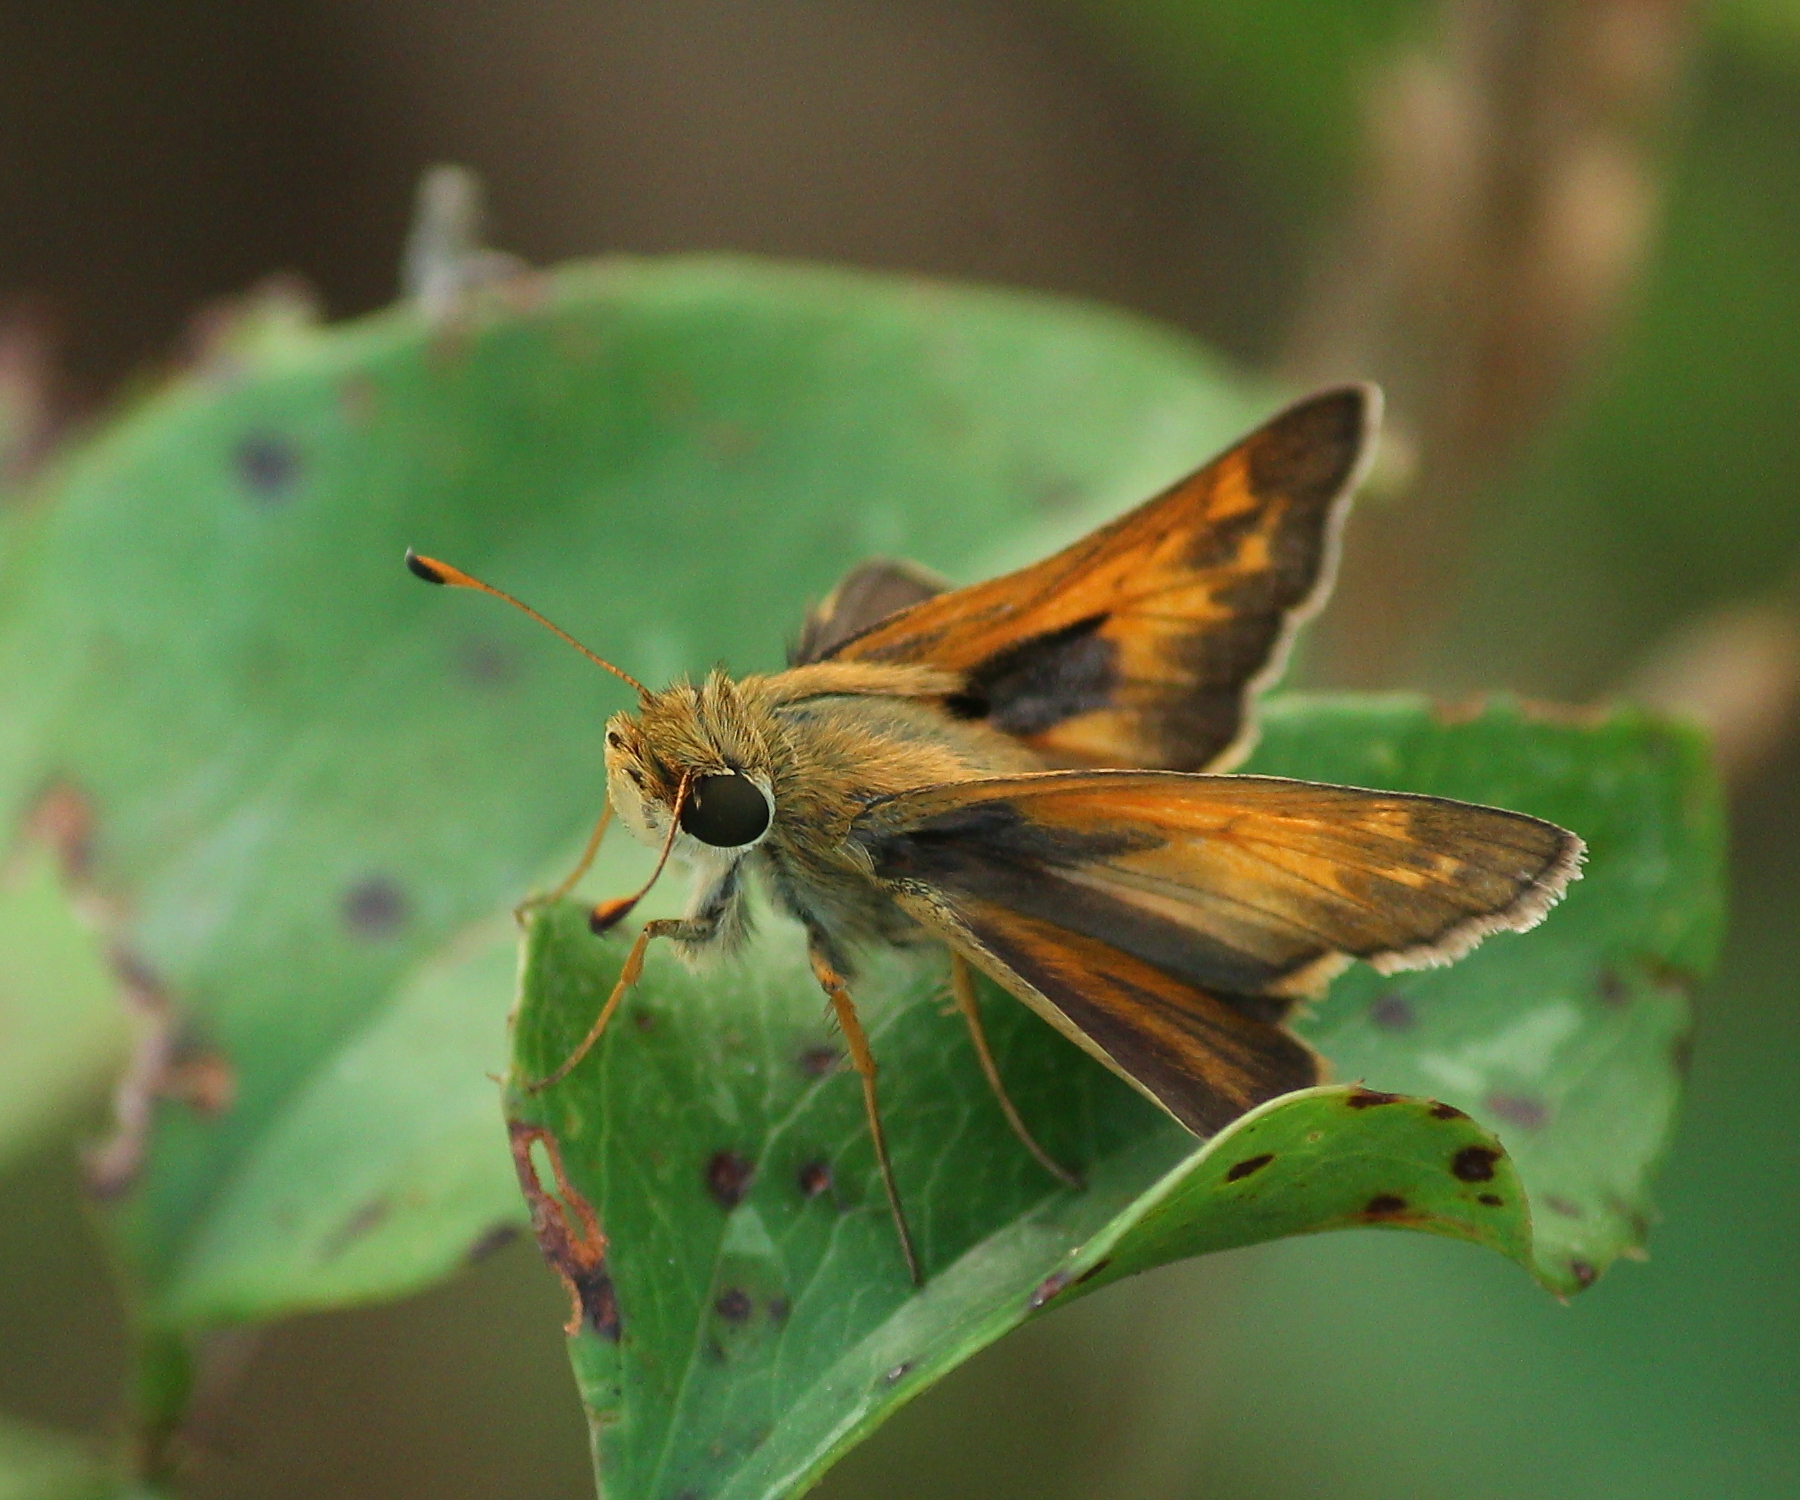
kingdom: Animalia
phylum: Arthropoda
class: Insecta
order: Lepidoptera
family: Hesperiidae
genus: Atalopedes
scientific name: Atalopedes
